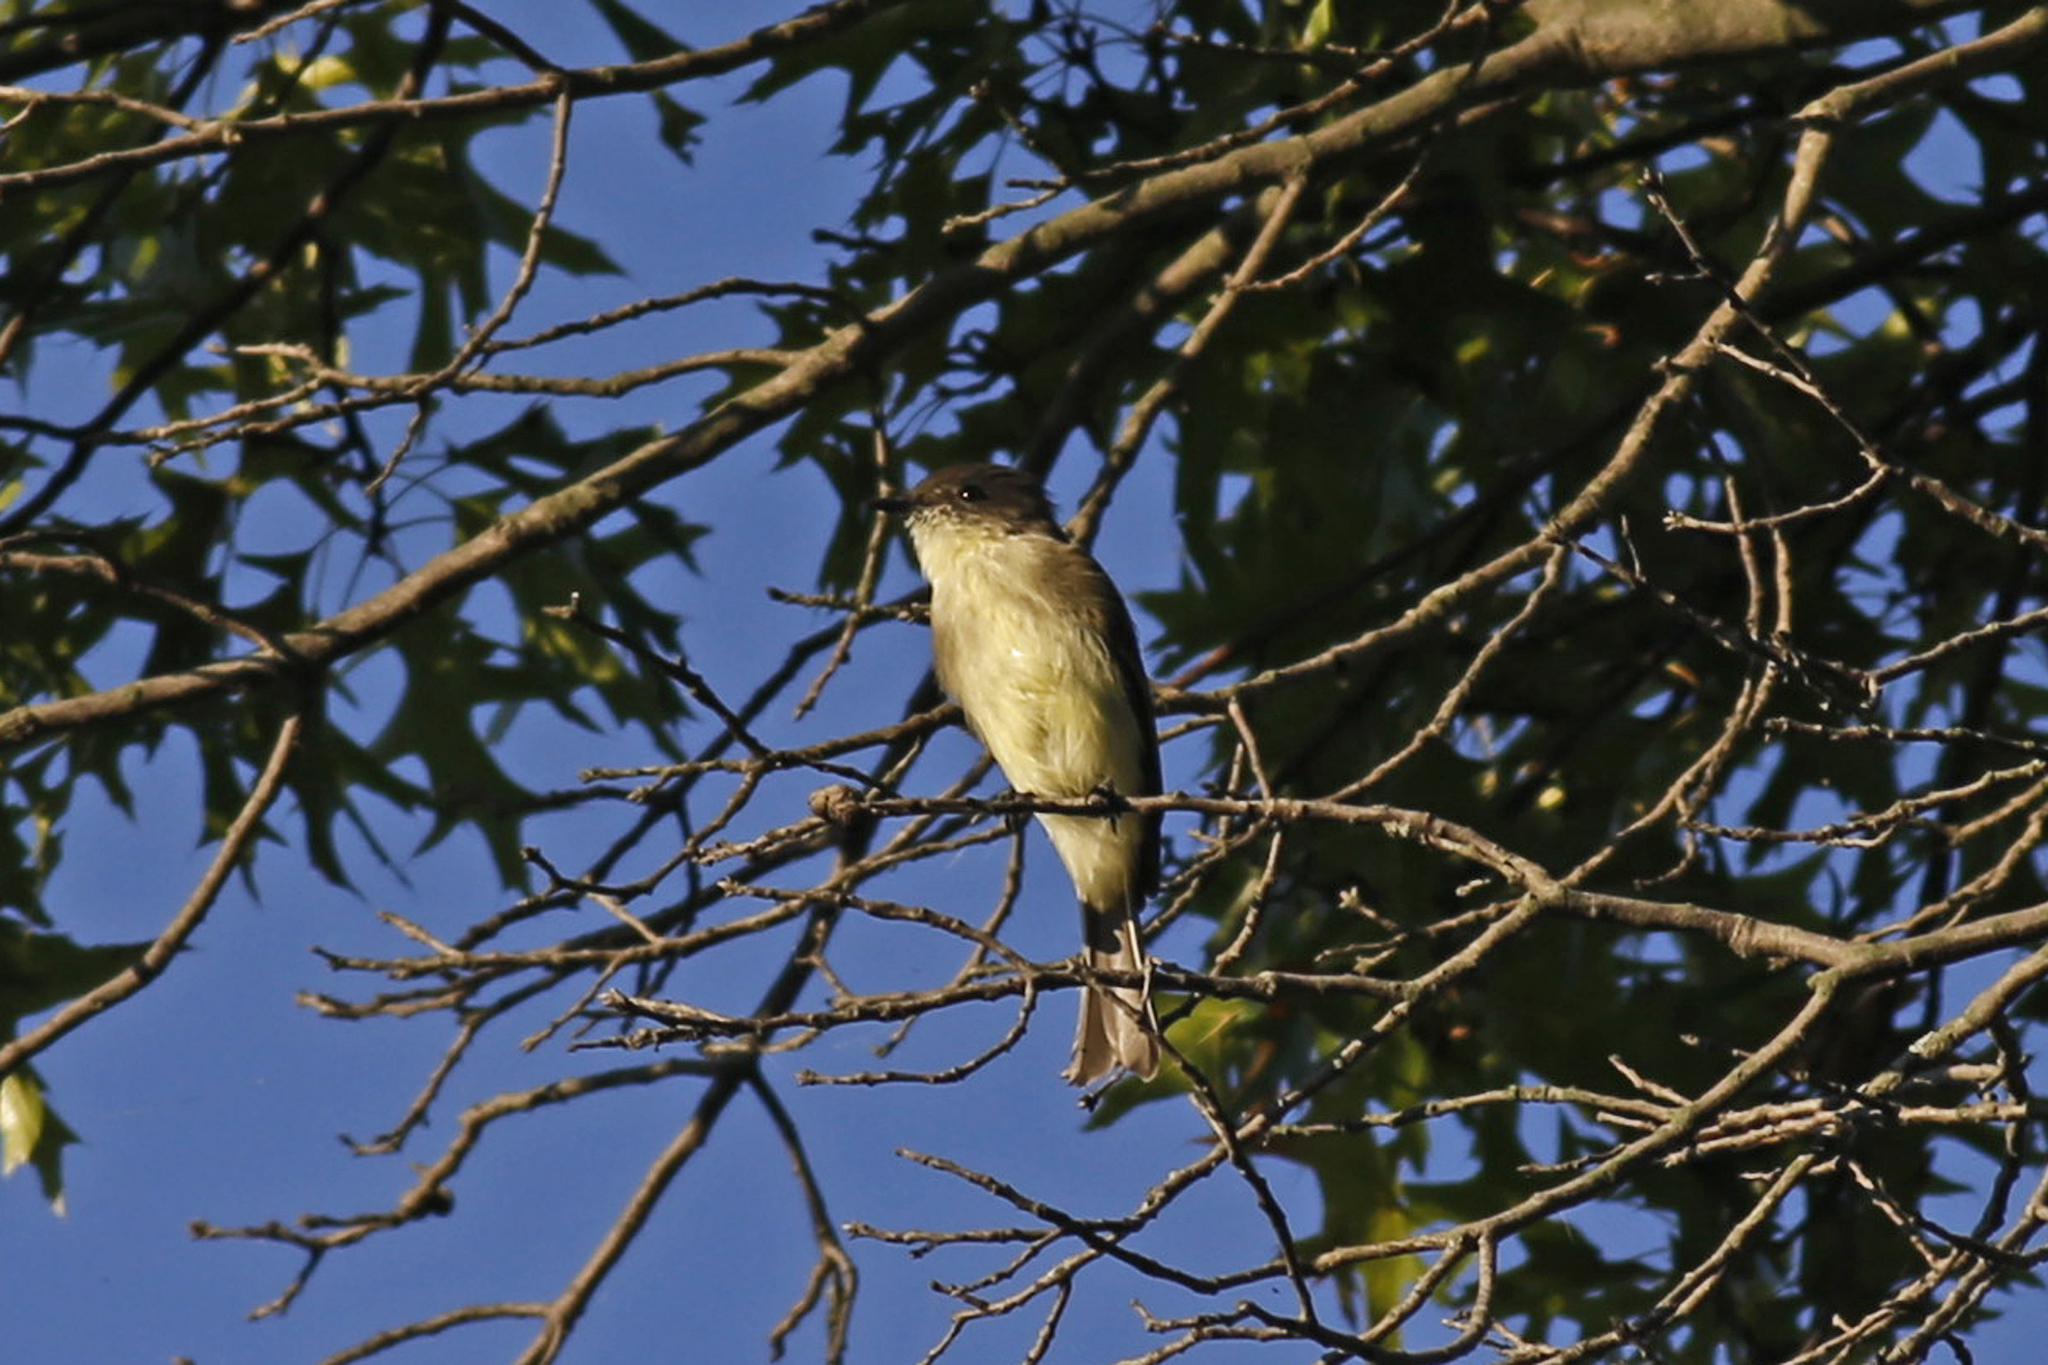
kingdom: Animalia
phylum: Chordata
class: Aves
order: Passeriformes
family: Tyrannidae
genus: Sayornis
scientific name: Sayornis phoebe
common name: Eastern phoebe
